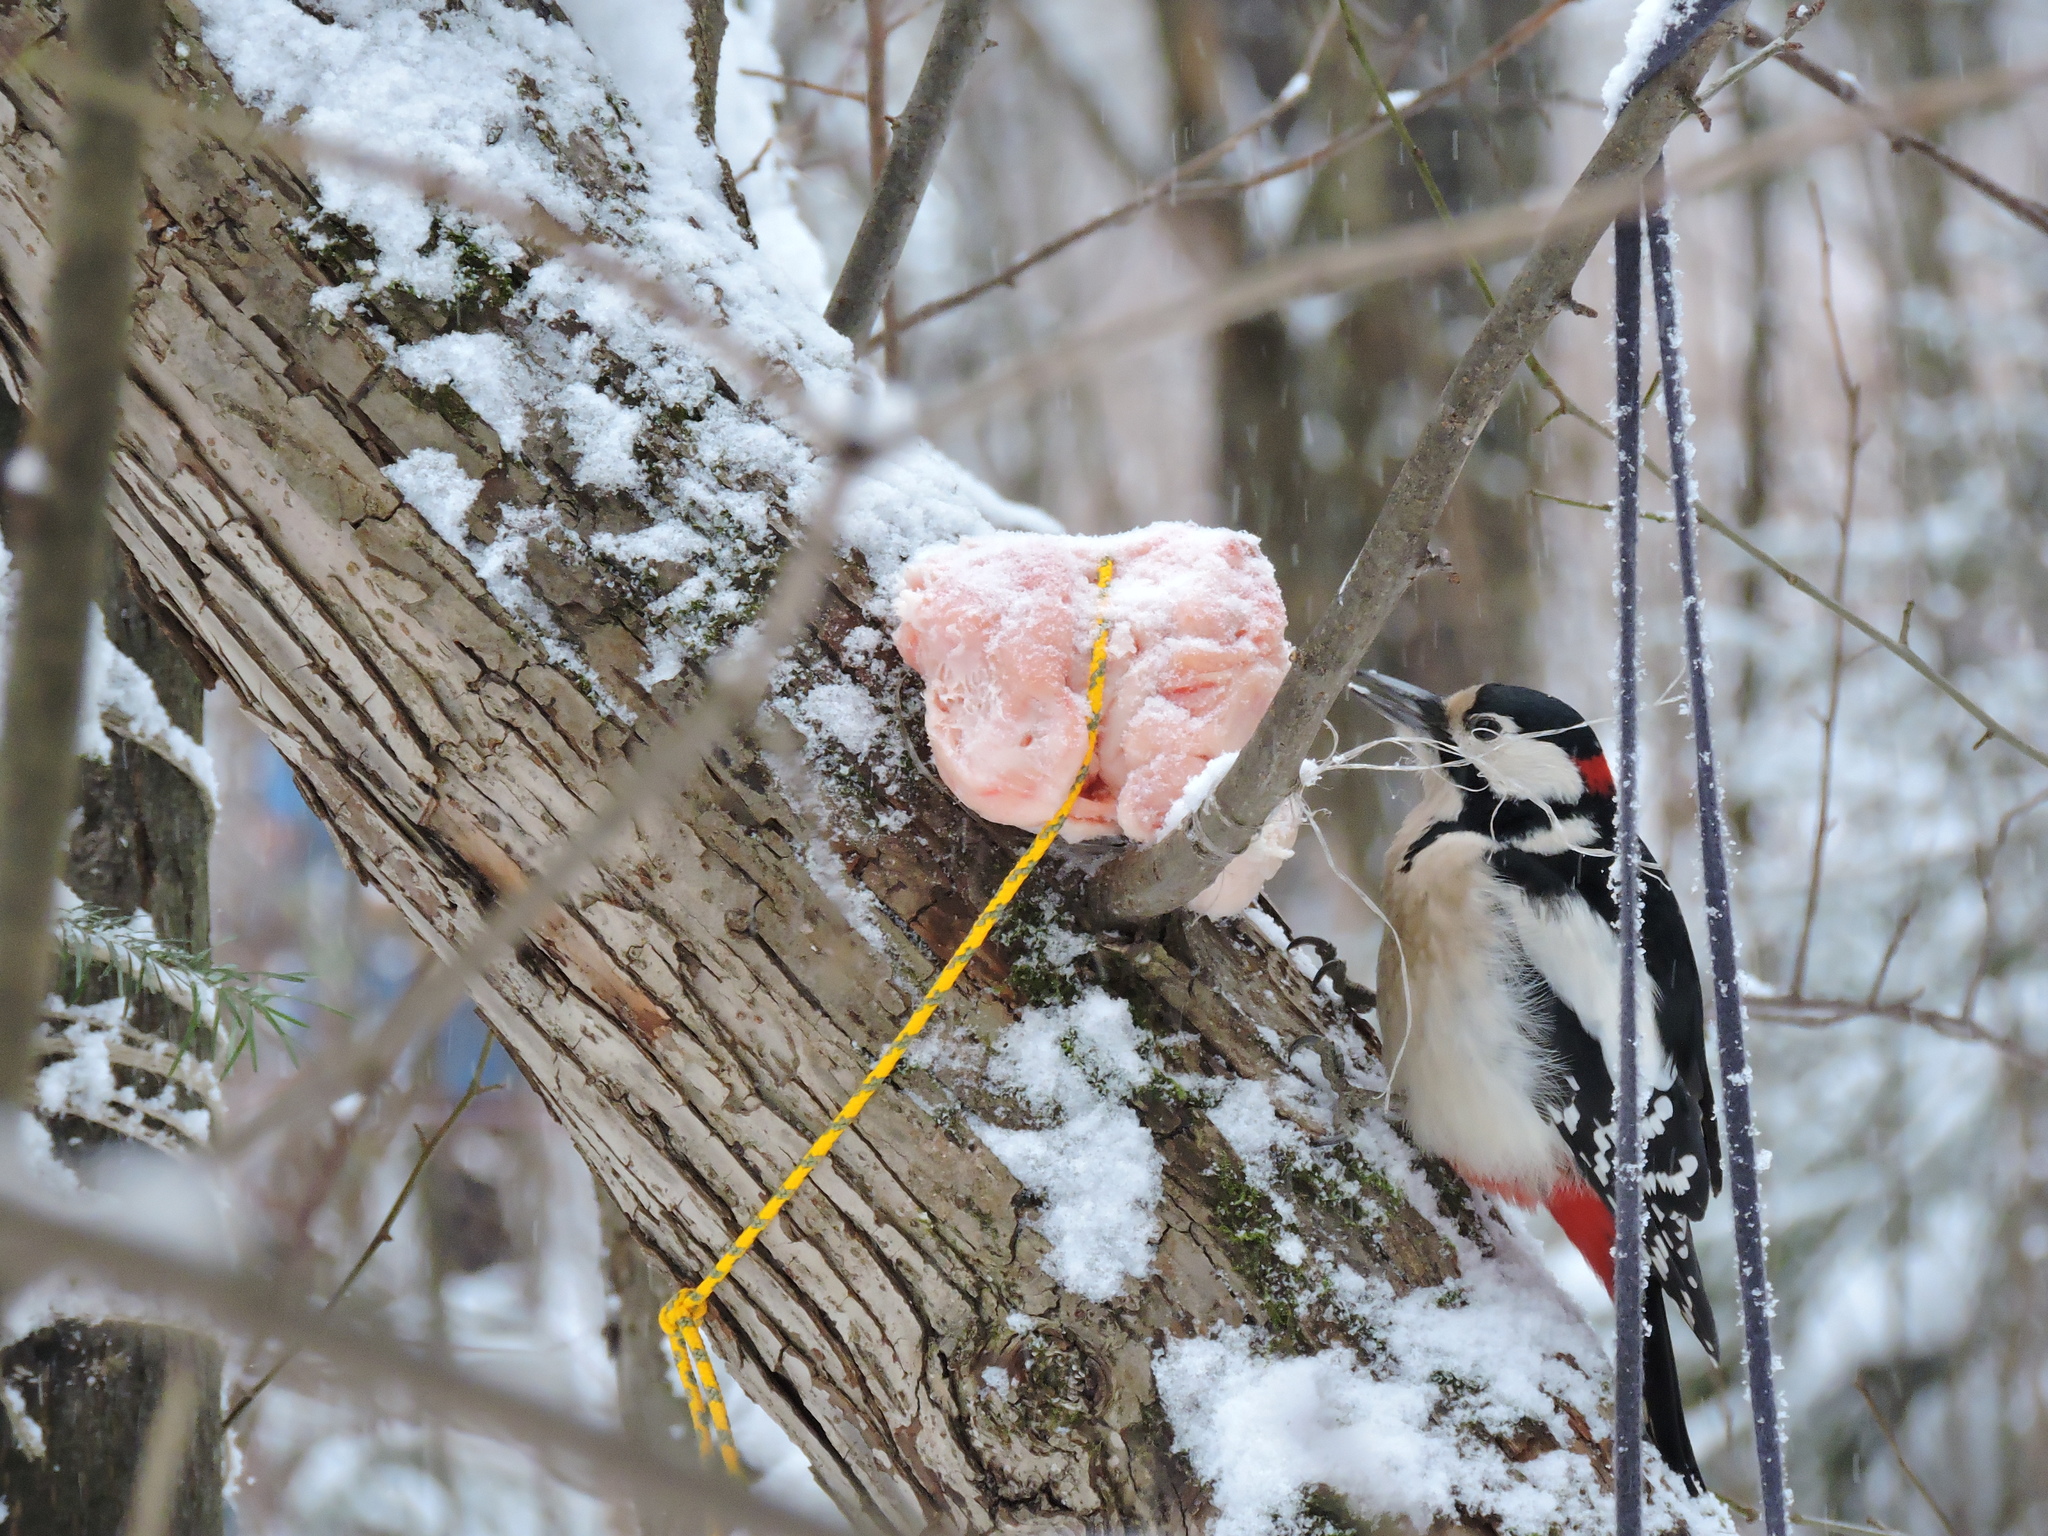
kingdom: Animalia
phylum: Chordata
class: Aves
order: Piciformes
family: Picidae
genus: Dendrocopos
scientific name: Dendrocopos major
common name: Great spotted woodpecker
